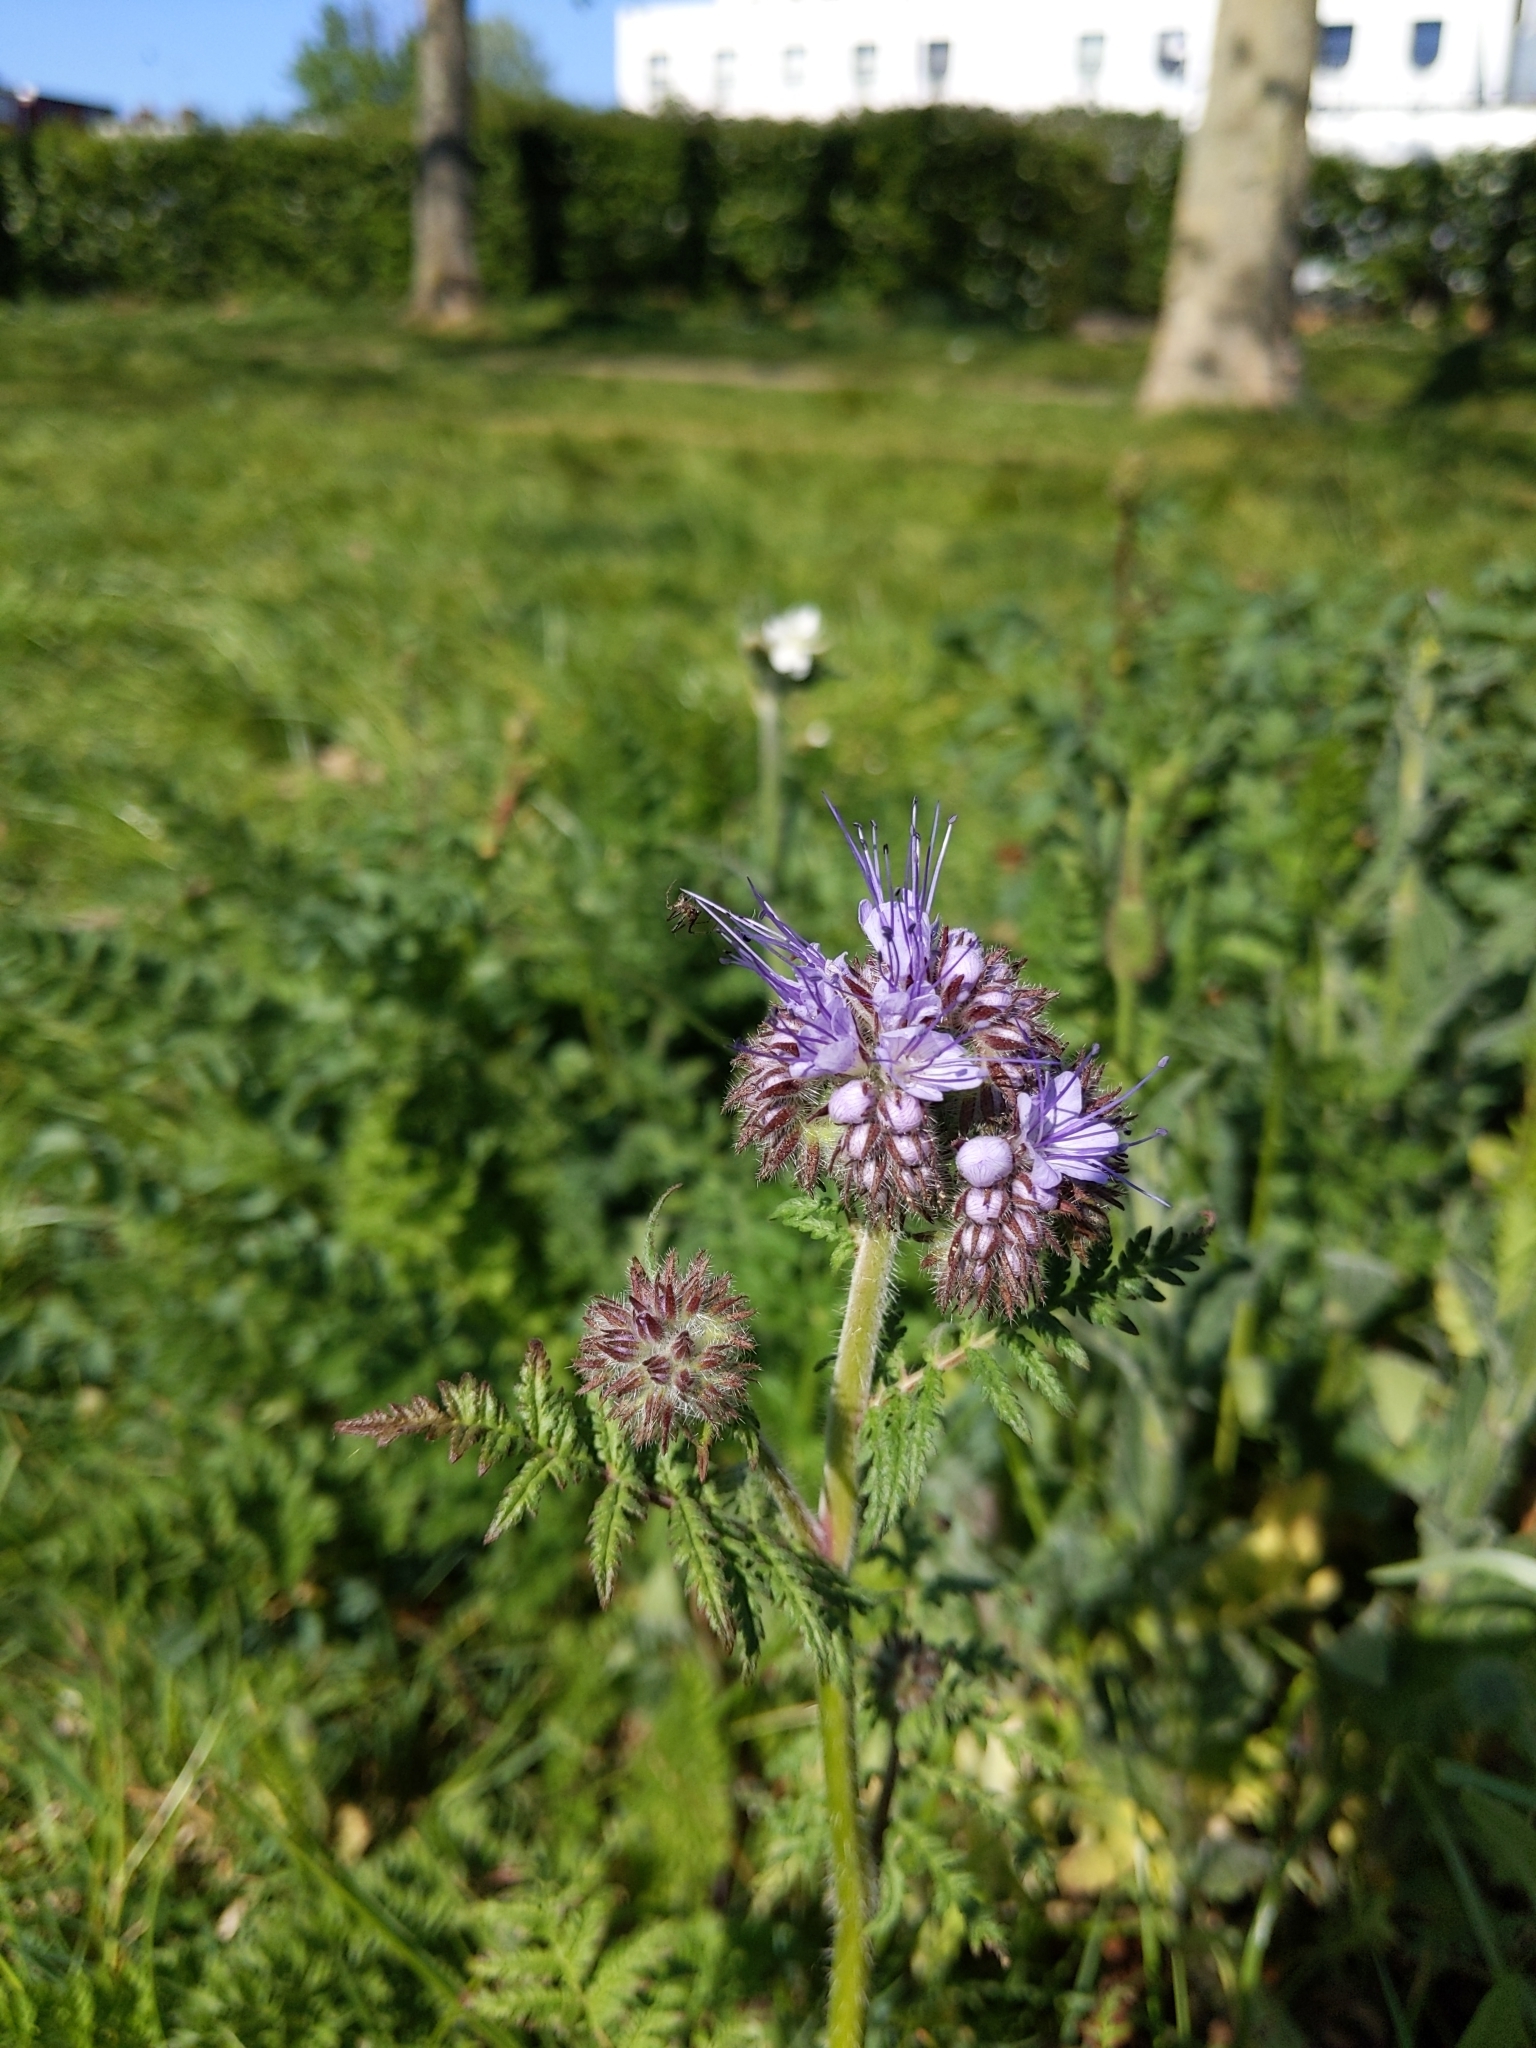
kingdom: Plantae
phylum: Tracheophyta
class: Magnoliopsida
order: Boraginales
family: Hydrophyllaceae
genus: Phacelia
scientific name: Phacelia tanacetifolia
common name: Phacelia
